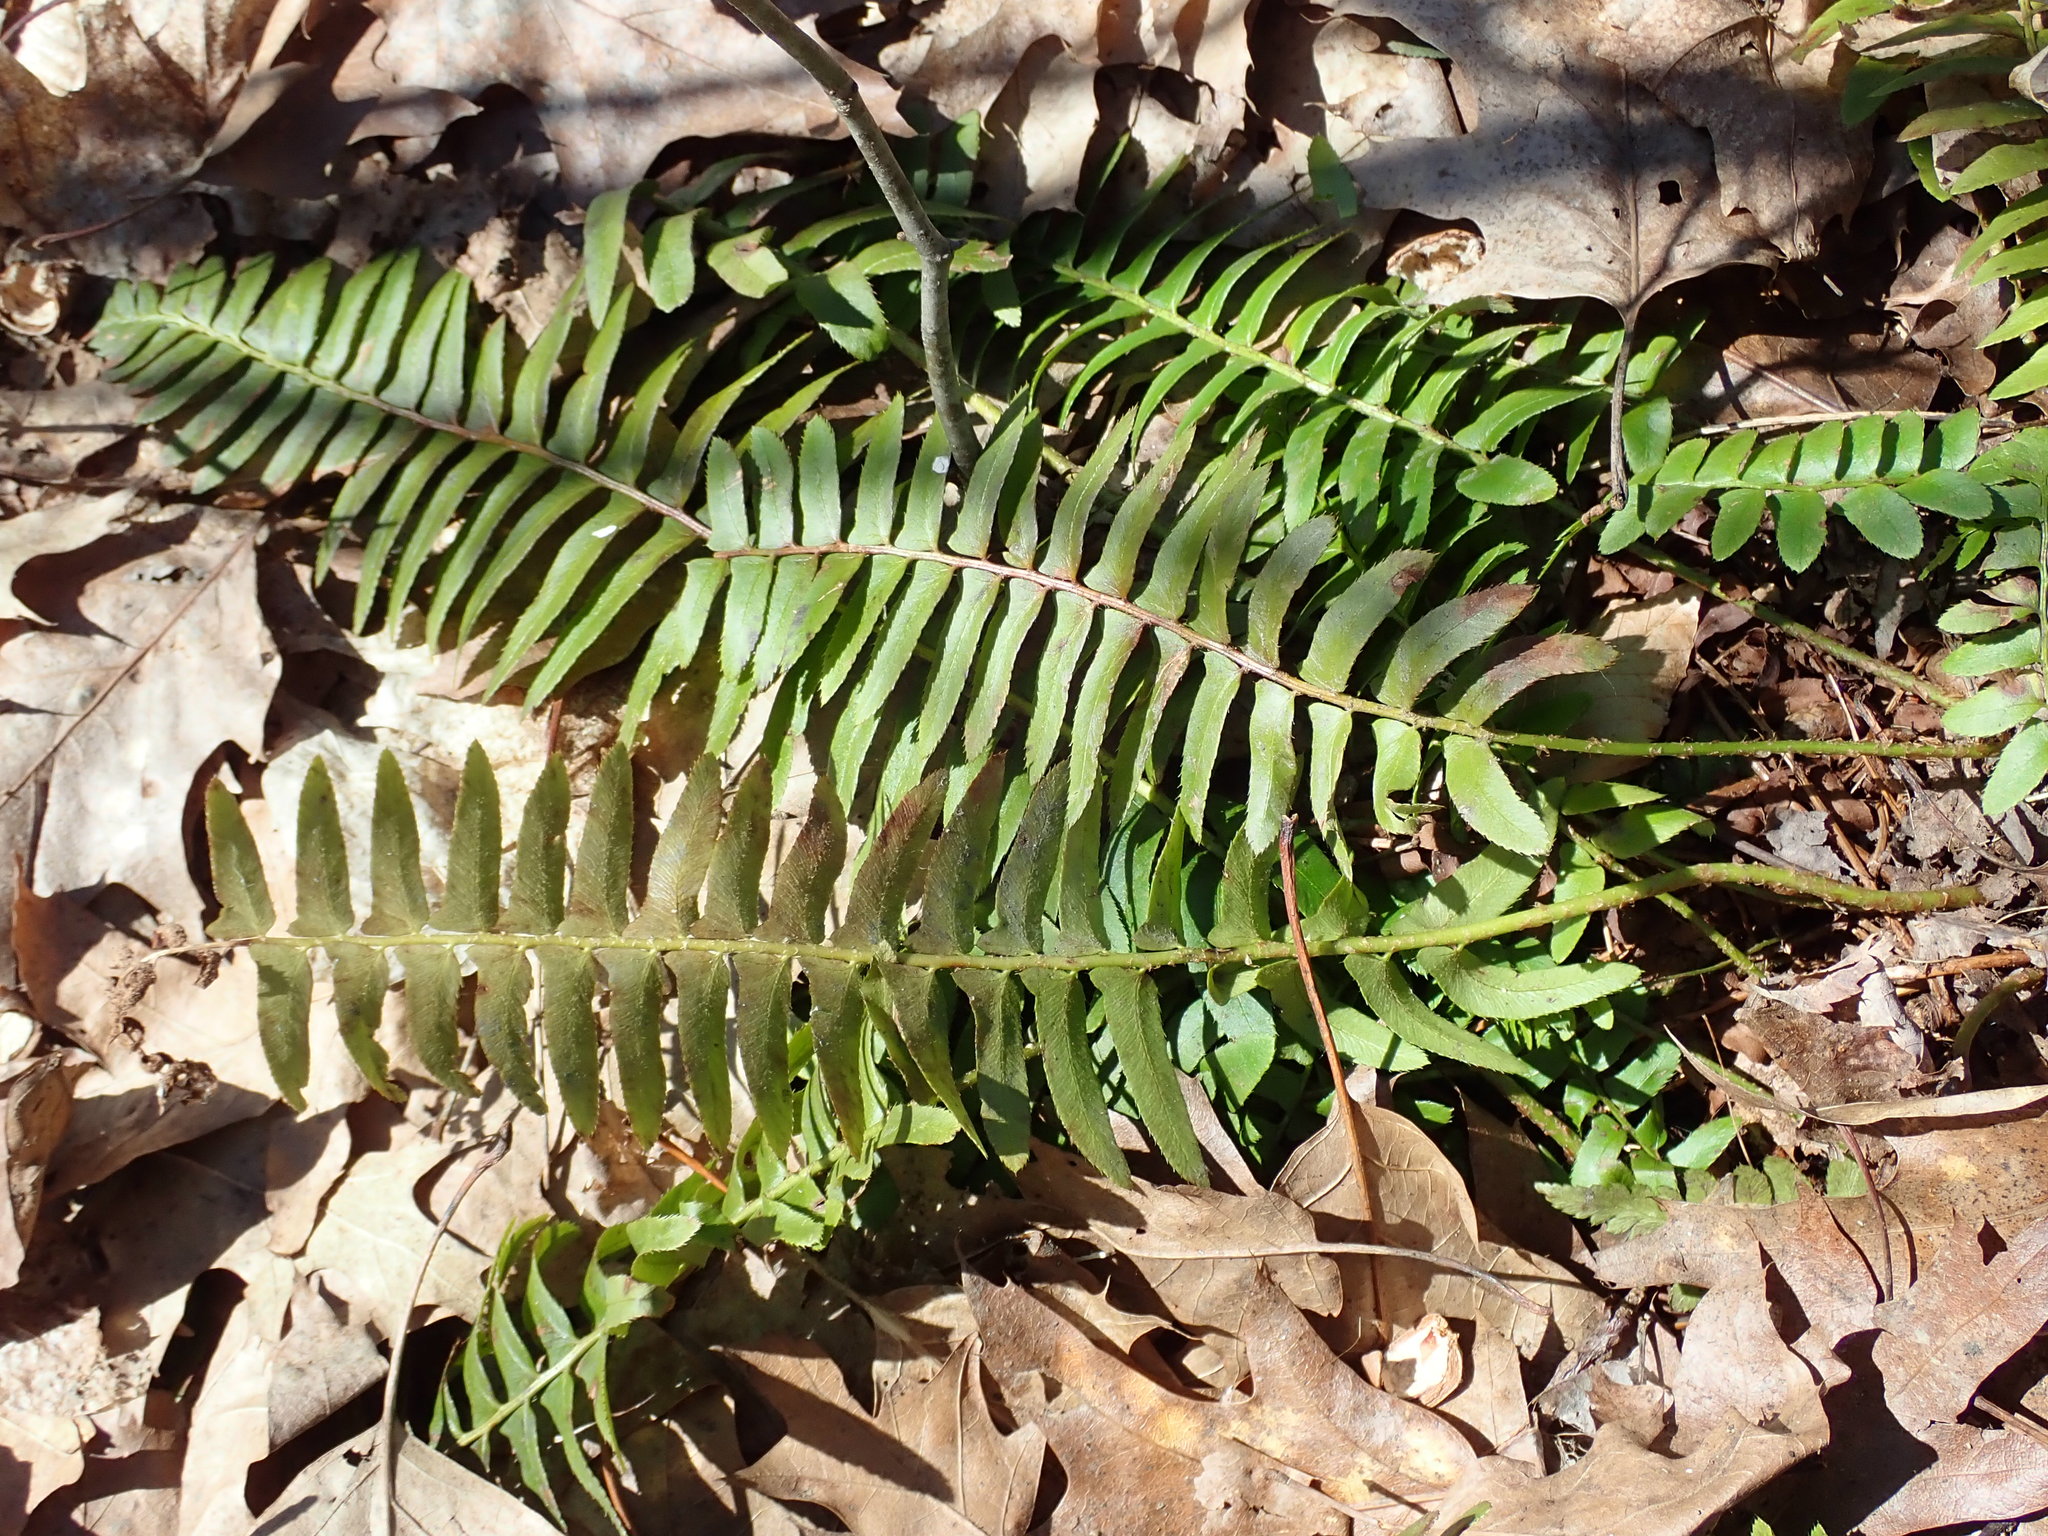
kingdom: Plantae
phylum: Tracheophyta
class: Polypodiopsida
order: Polypodiales
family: Dryopteridaceae
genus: Polystichum
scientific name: Polystichum acrostichoides
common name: Christmas fern
